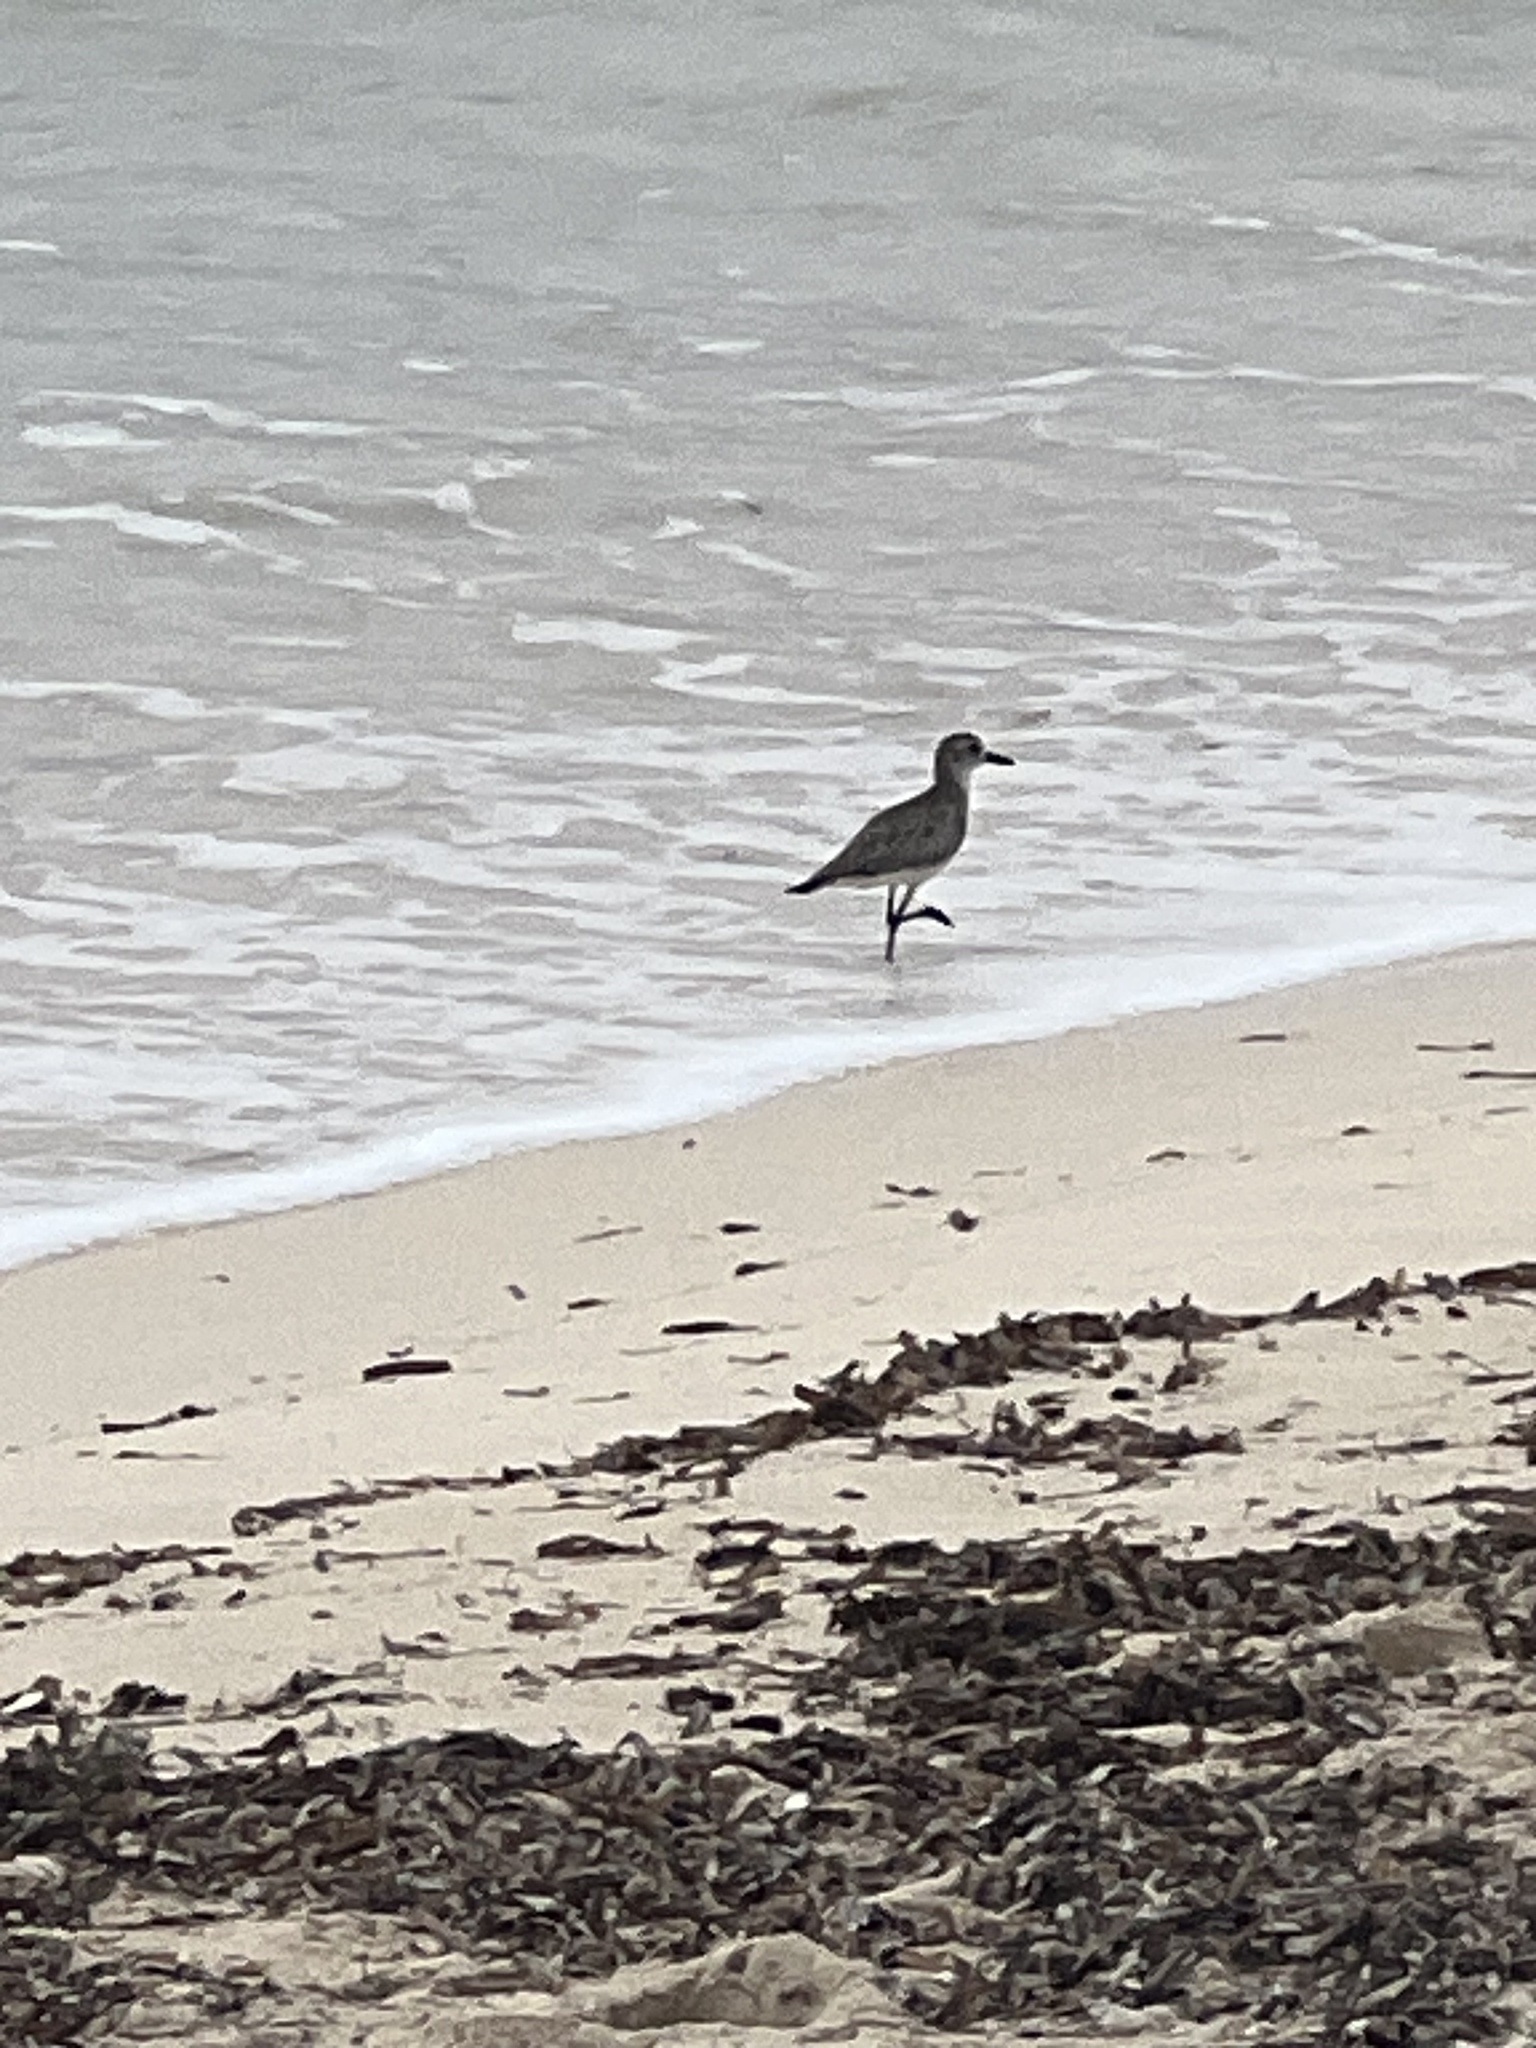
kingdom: Animalia
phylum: Chordata
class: Aves
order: Charadriiformes
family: Charadriidae
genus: Pluvialis
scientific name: Pluvialis squatarola
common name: Grey plover
